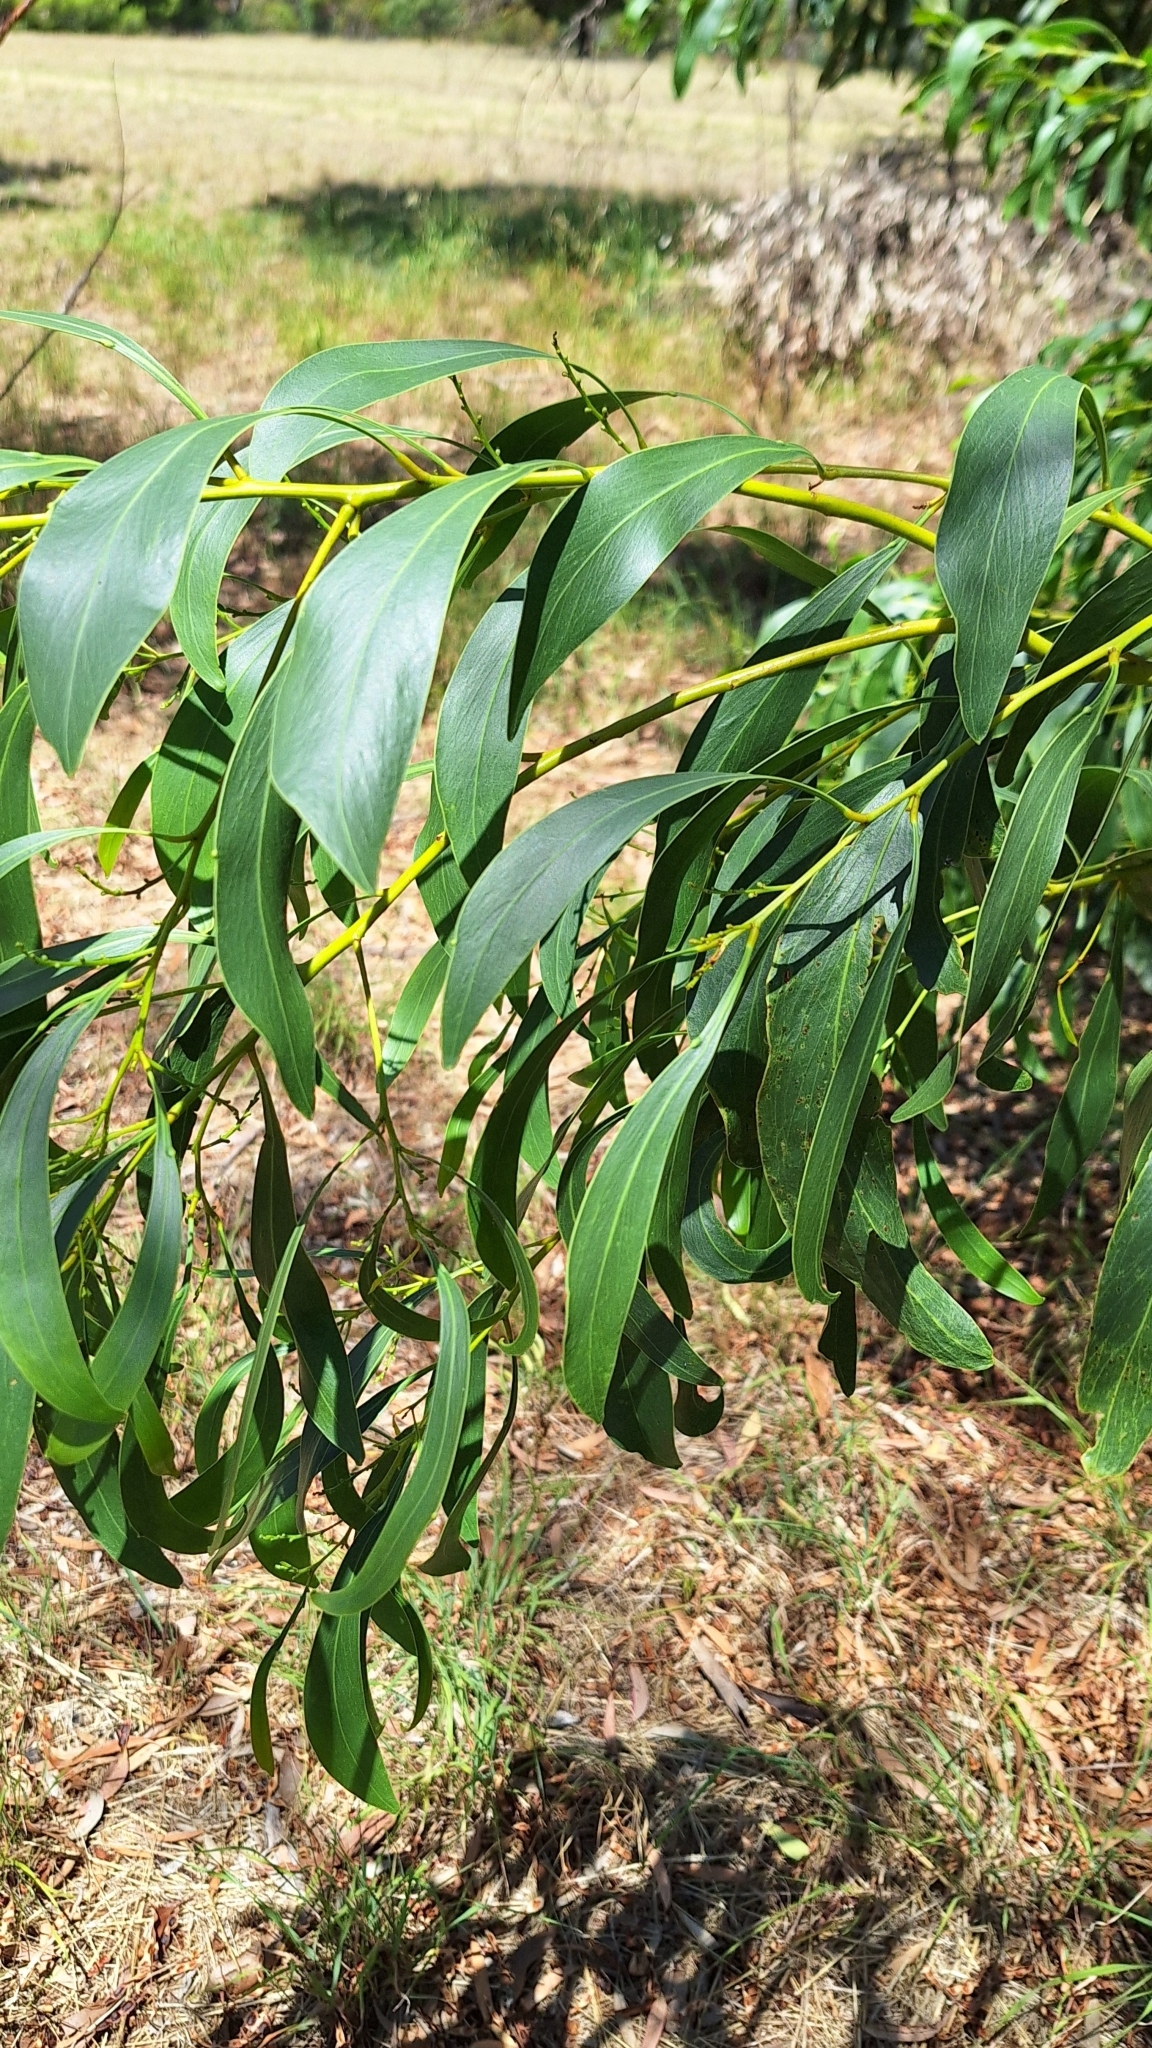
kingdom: Plantae
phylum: Tracheophyta
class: Magnoliopsida
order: Fabales
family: Fabaceae
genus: Acacia
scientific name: Acacia pycnantha
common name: Golden wattle
